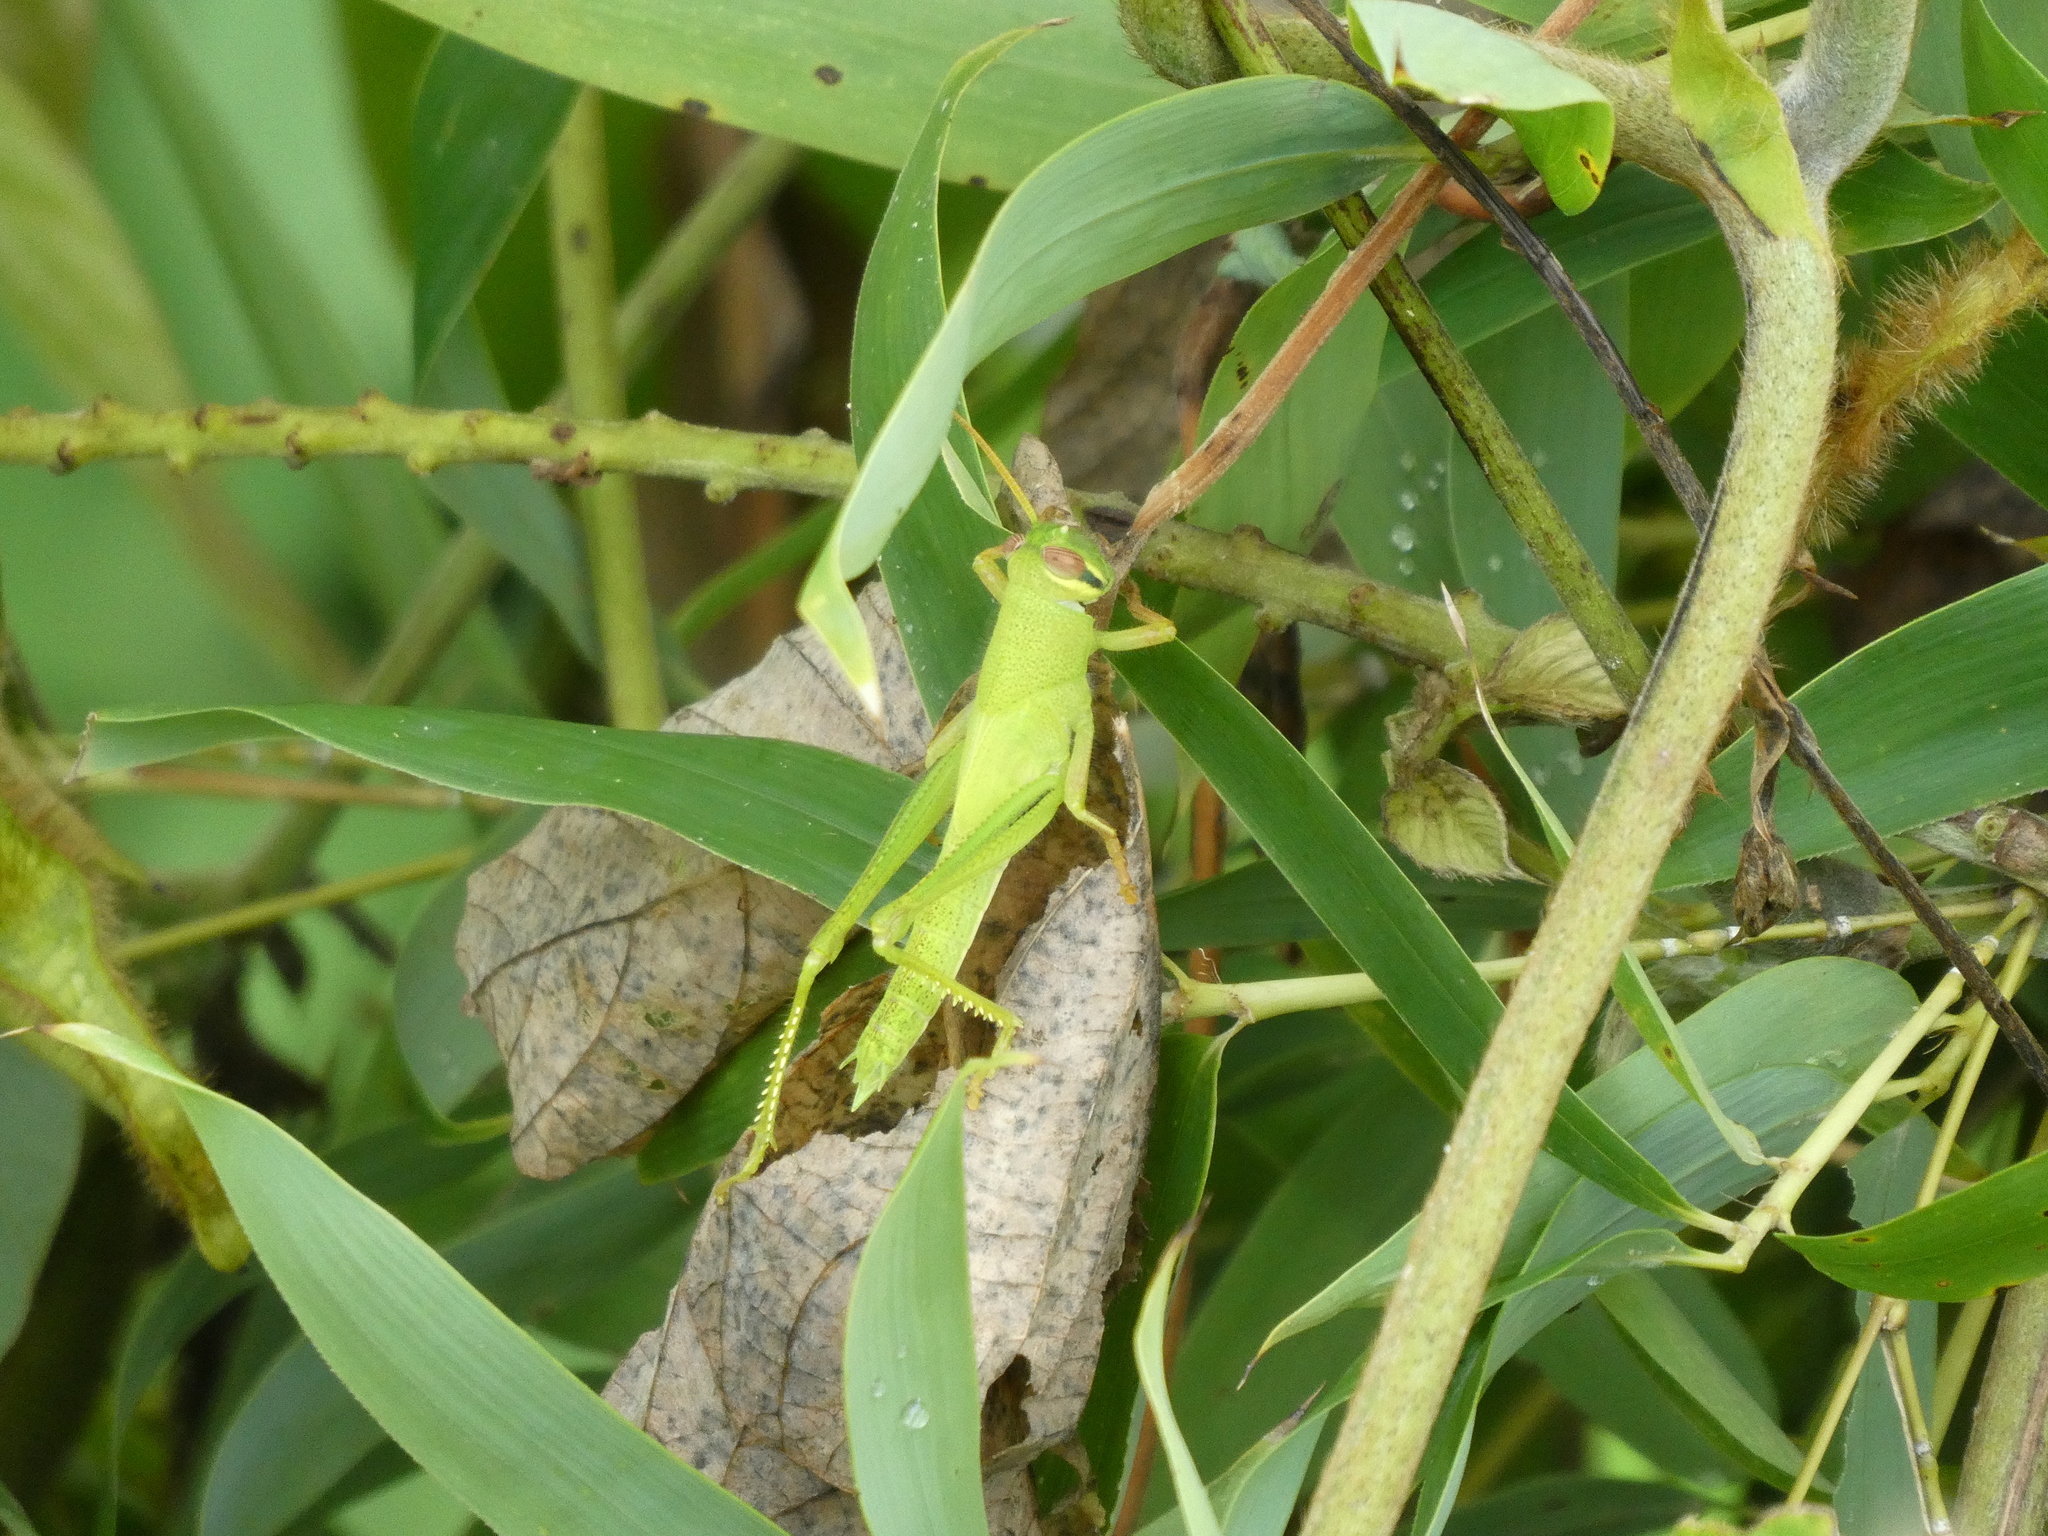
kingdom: Animalia
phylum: Arthropoda
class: Insecta
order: Orthoptera
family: Acrididae
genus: Patanga
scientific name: Patanga japonica
